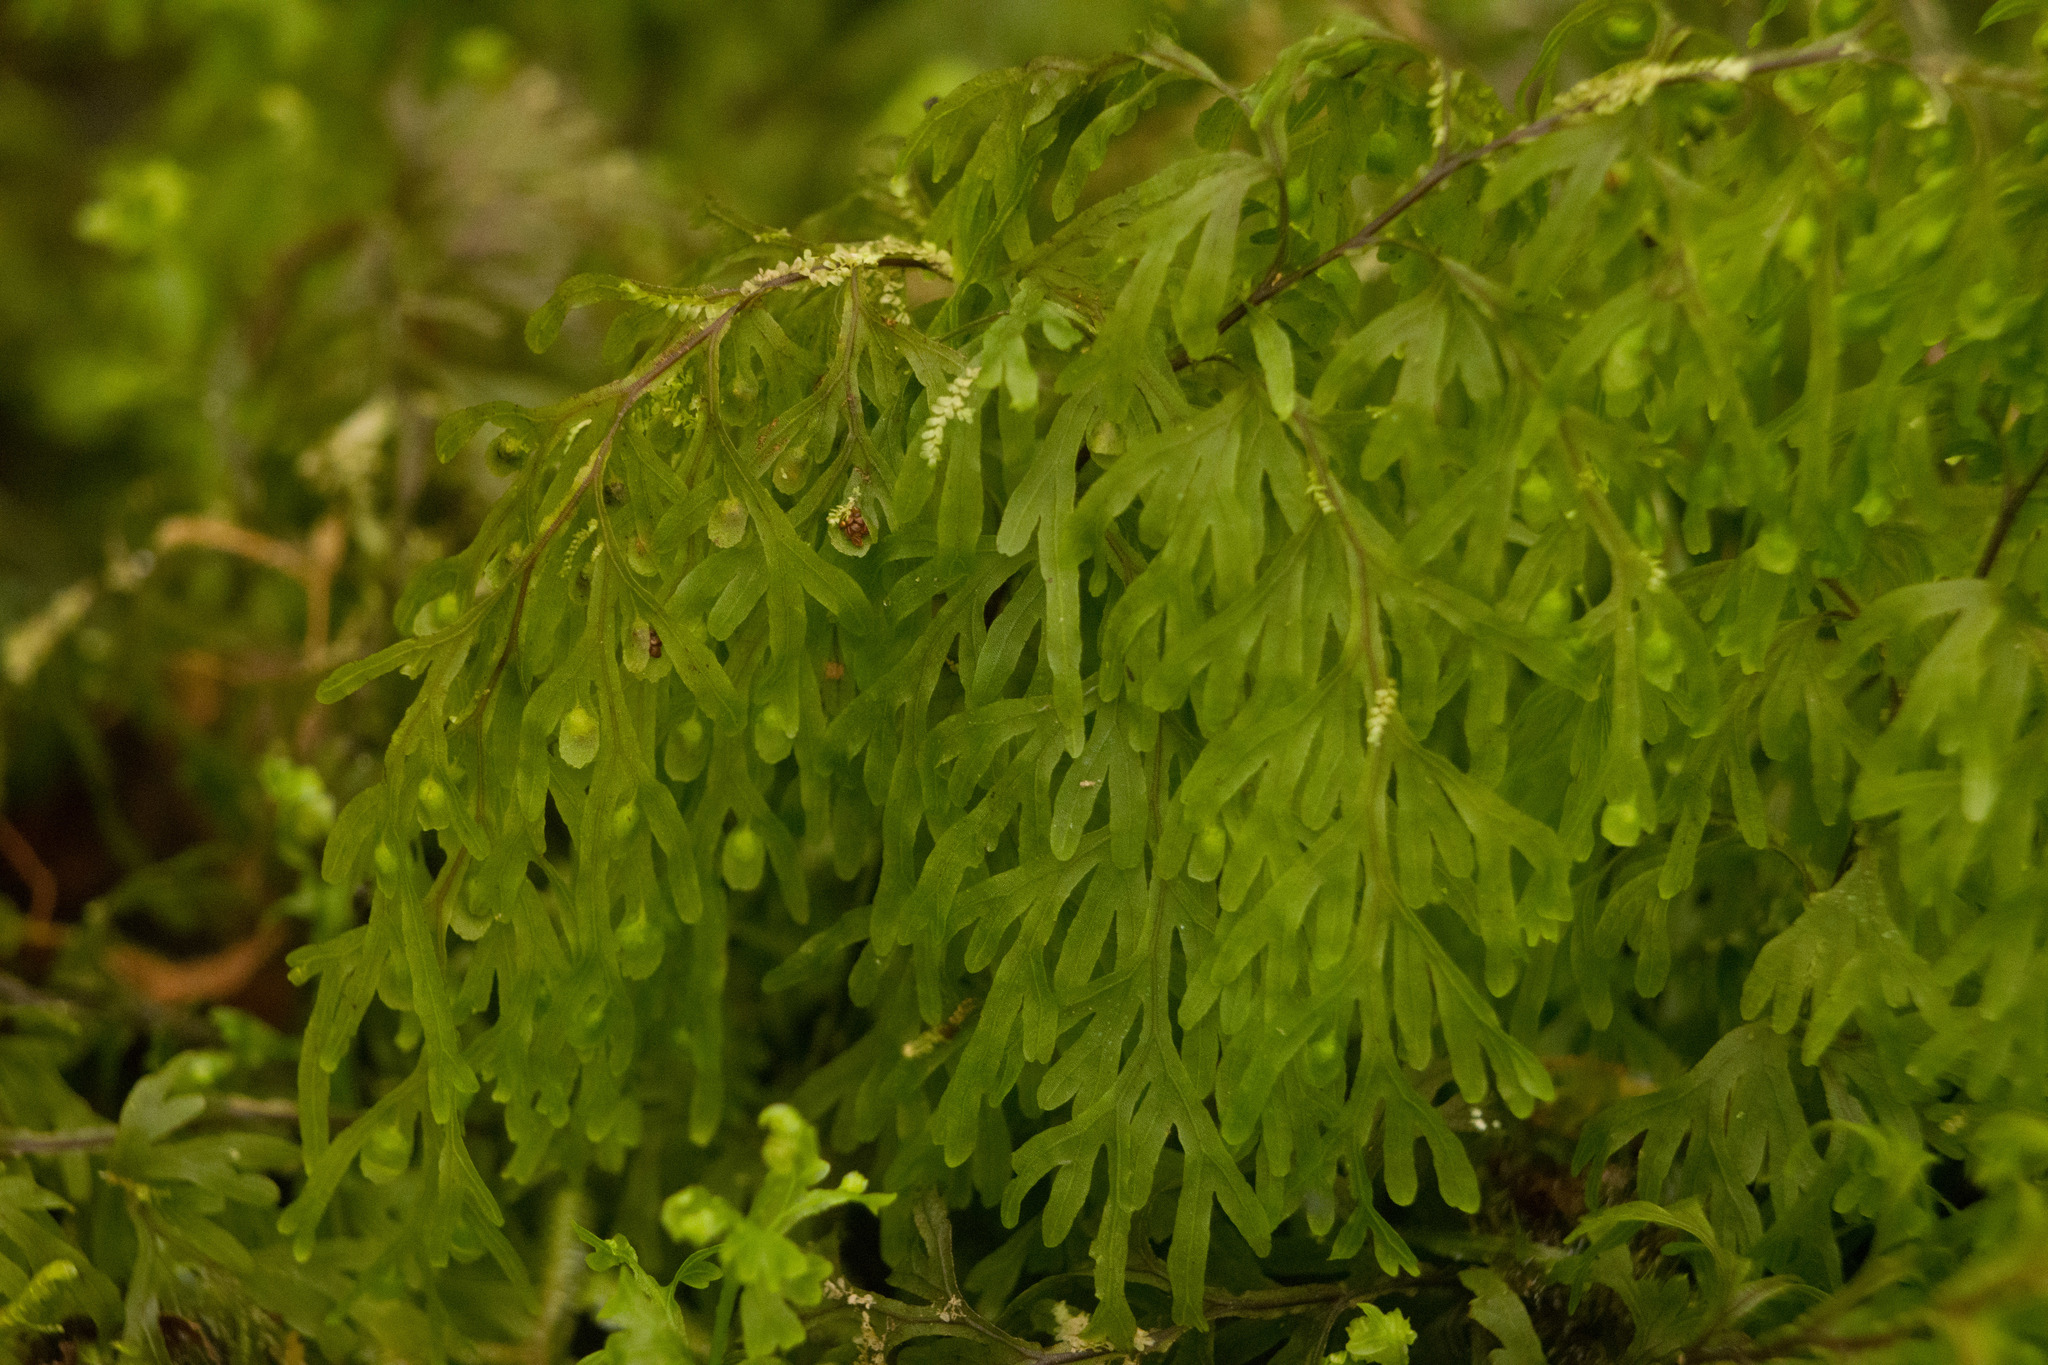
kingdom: Plantae
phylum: Tracheophyta
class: Polypodiopsida
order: Hymenophyllales
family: Hymenophyllaceae
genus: Hymenophyllum
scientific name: Hymenophyllum recurvum
